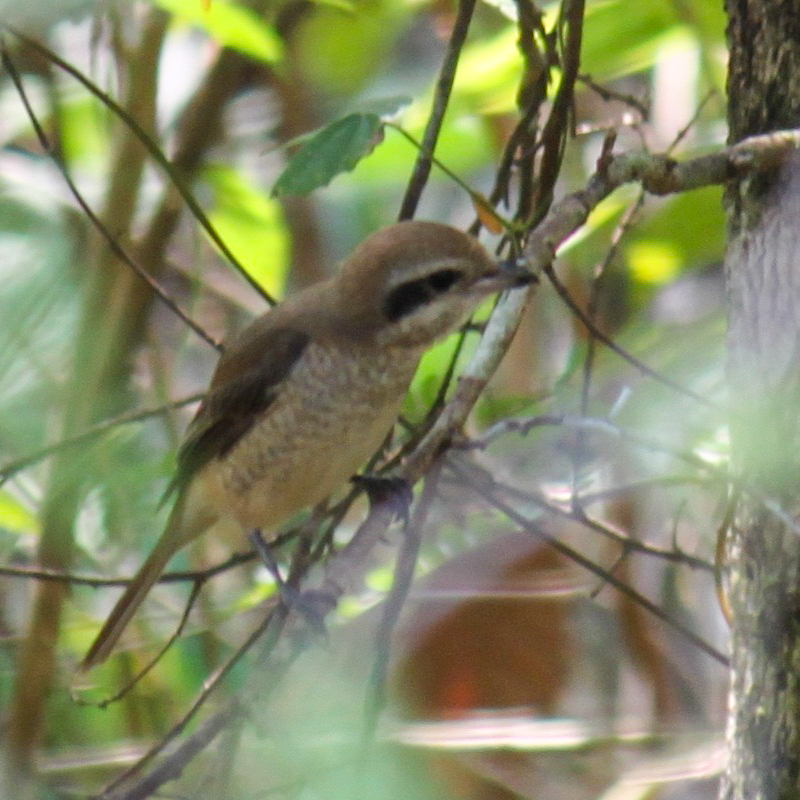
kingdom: Animalia
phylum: Chordata
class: Aves
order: Passeriformes
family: Laniidae
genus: Lanius
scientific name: Lanius cristatus
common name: Brown shrike
